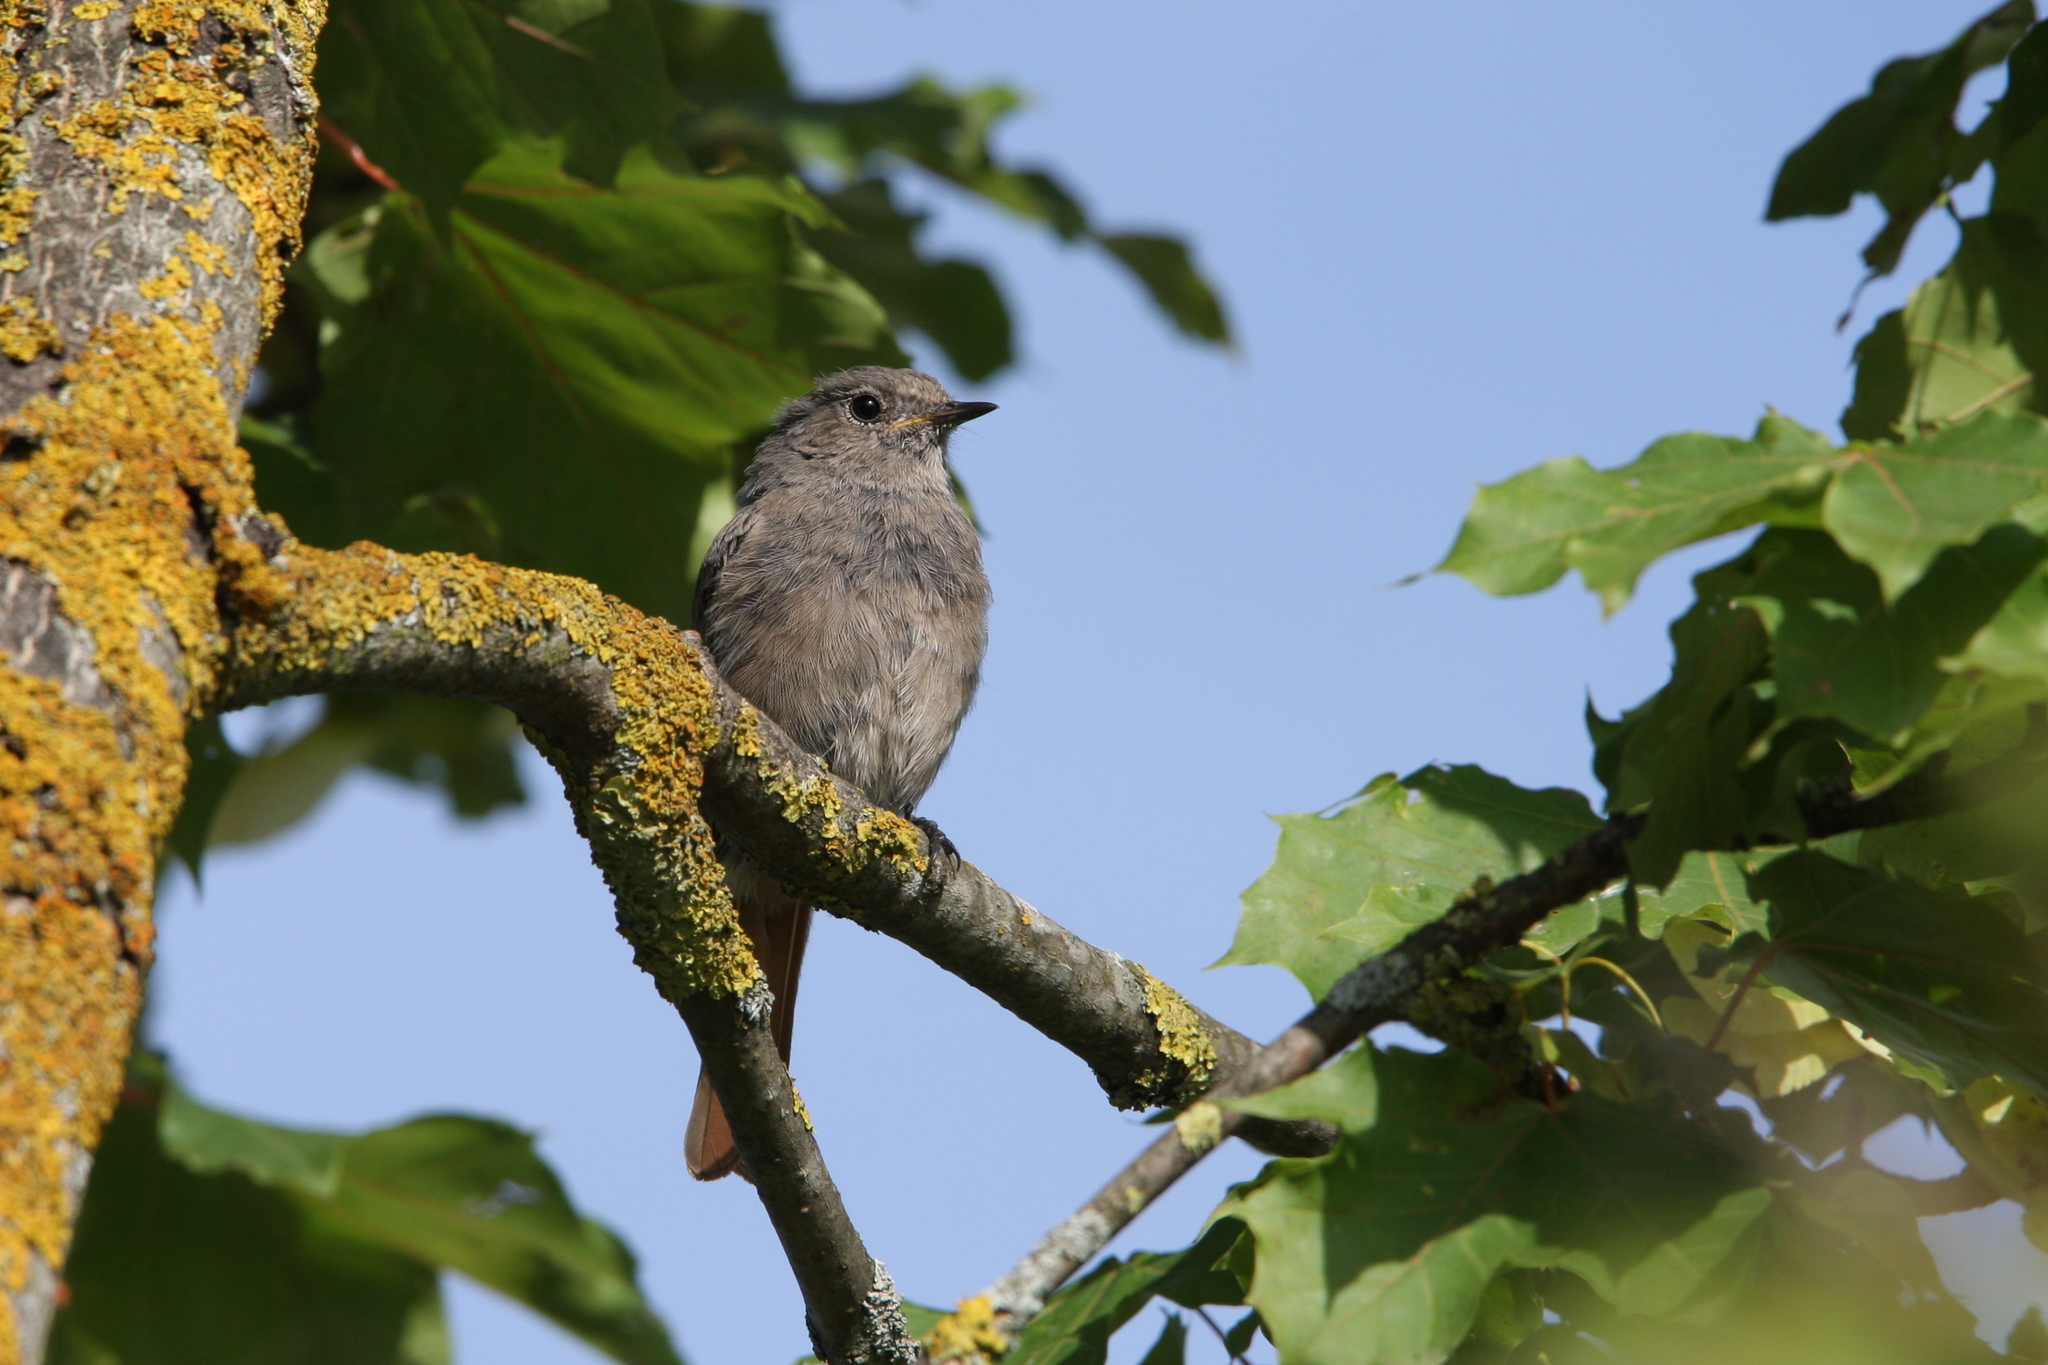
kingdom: Animalia
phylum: Chordata
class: Aves
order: Passeriformes
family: Muscicapidae
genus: Phoenicurus
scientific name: Phoenicurus ochruros
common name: Black redstart
